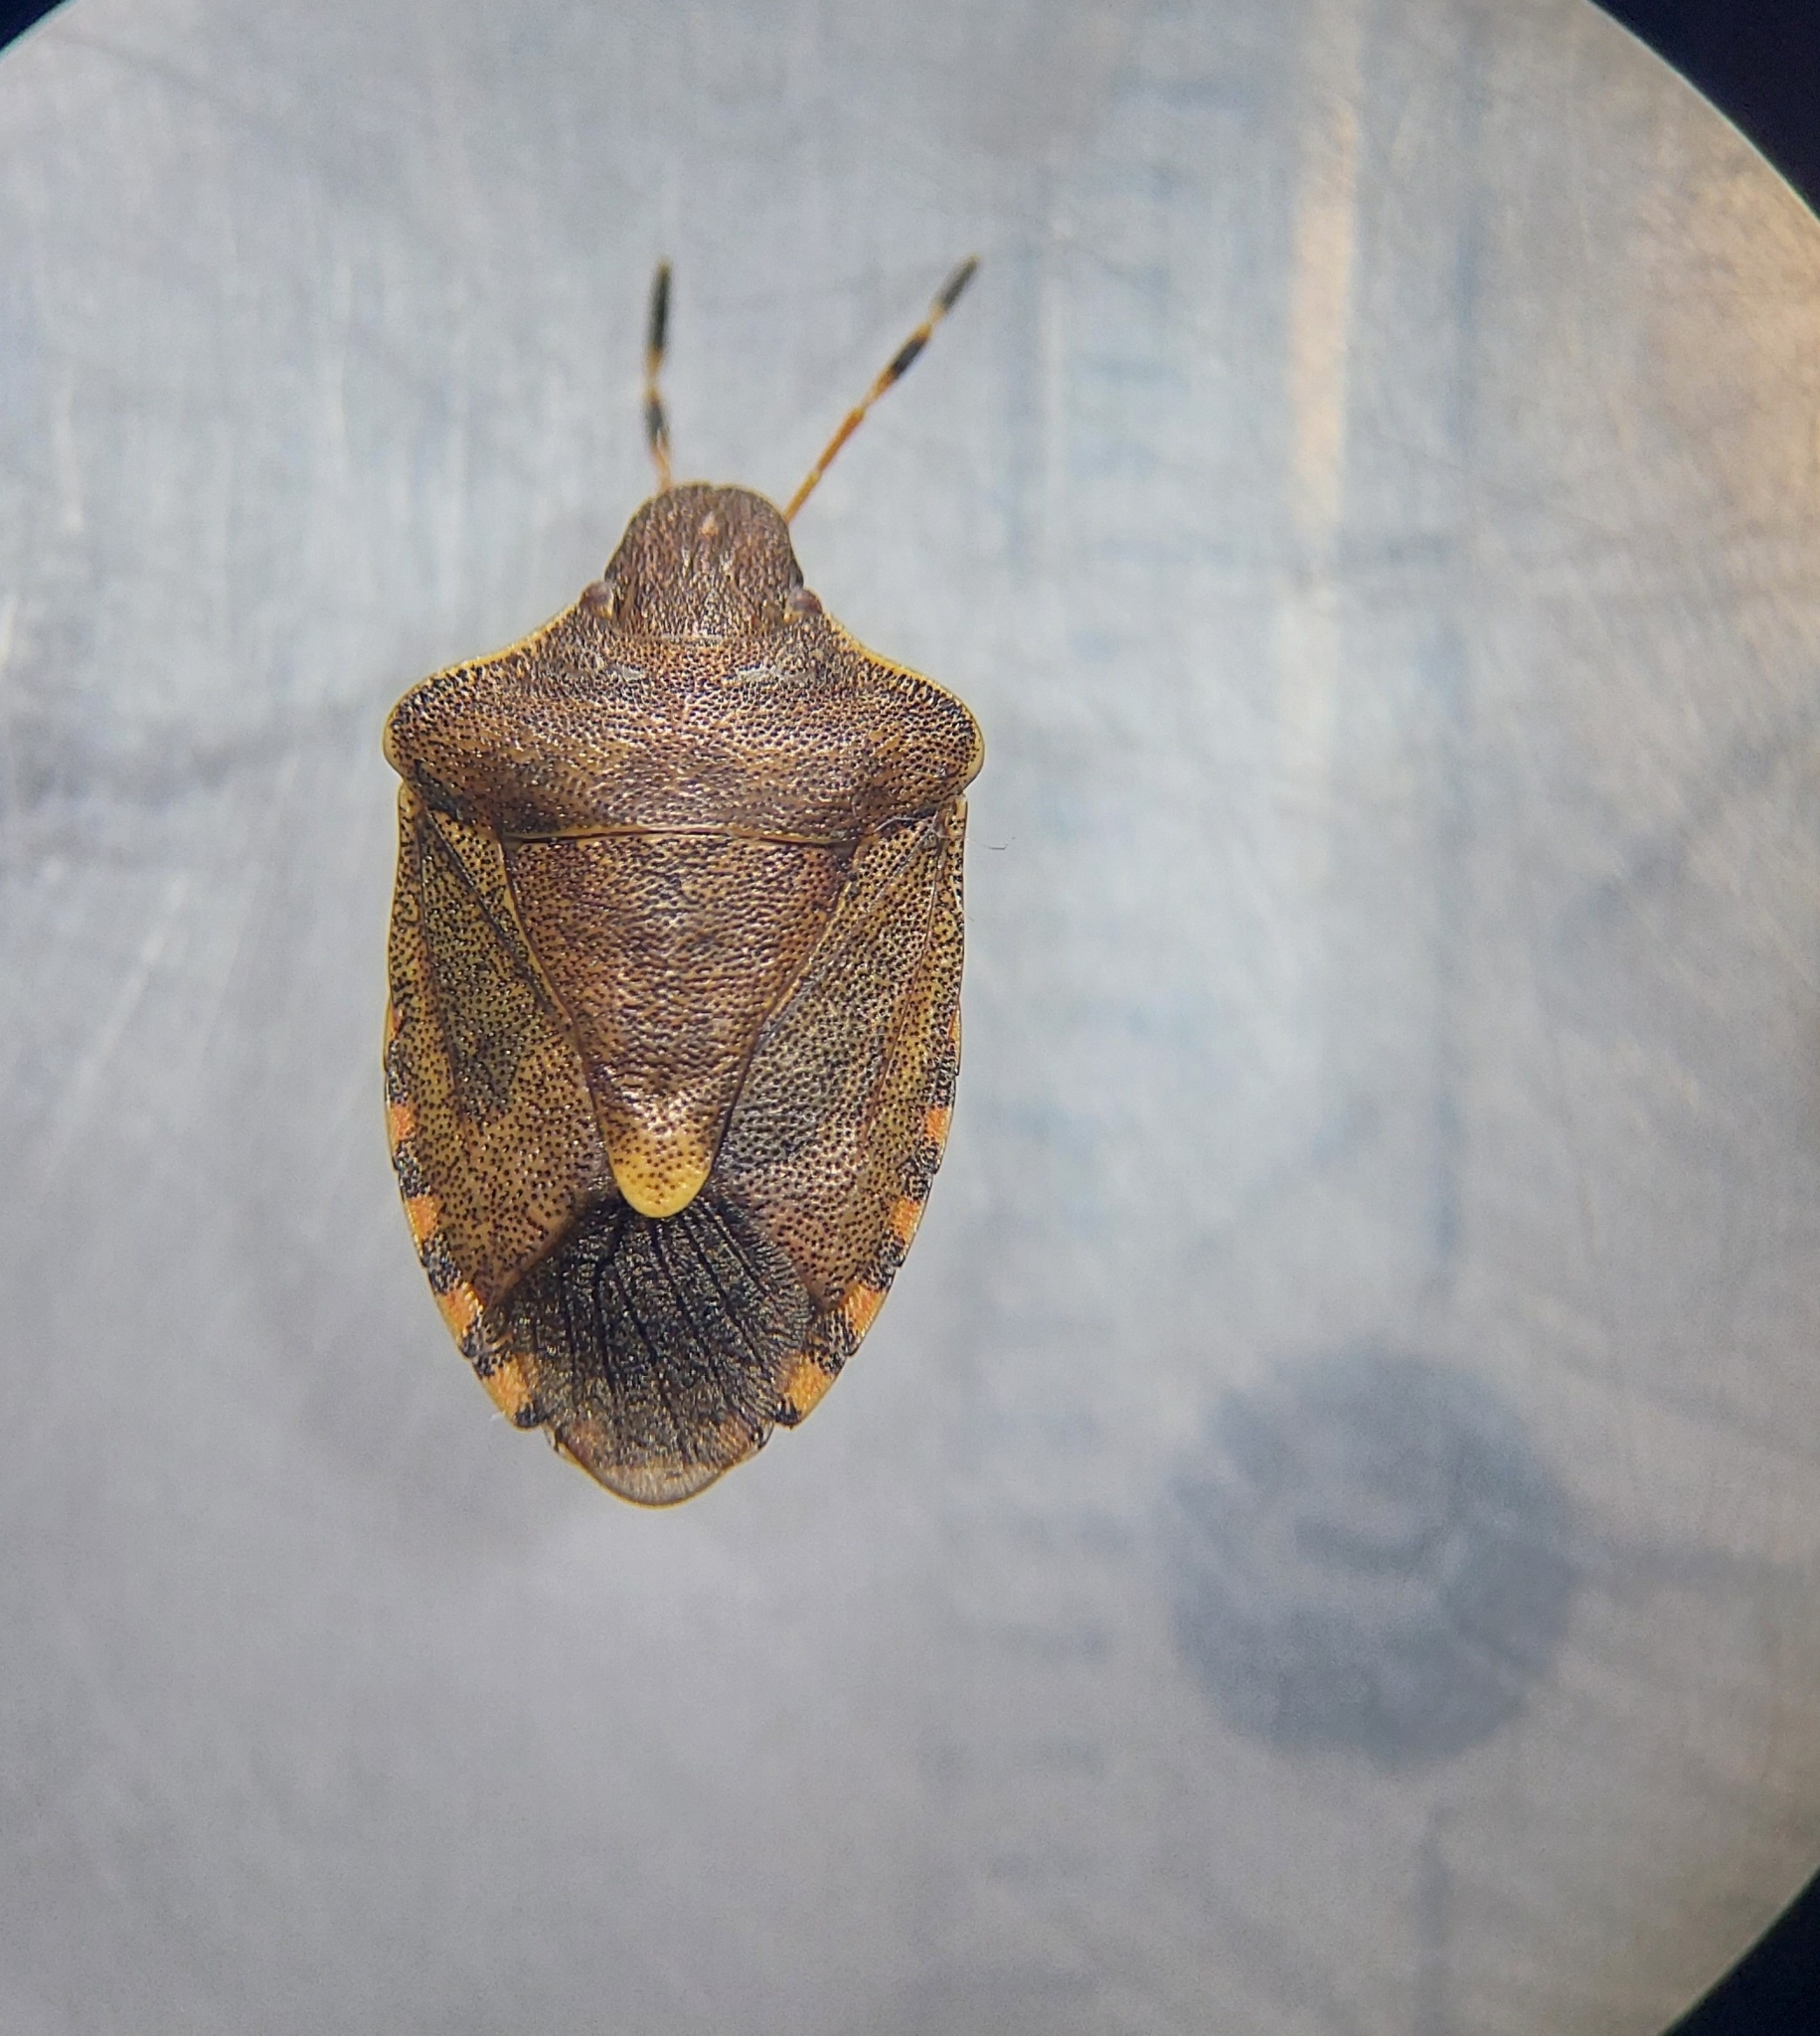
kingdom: Animalia
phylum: Arthropoda
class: Insecta
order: Hemiptera
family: Pentatomidae
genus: Holcostethus
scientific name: Holcostethus strictus
